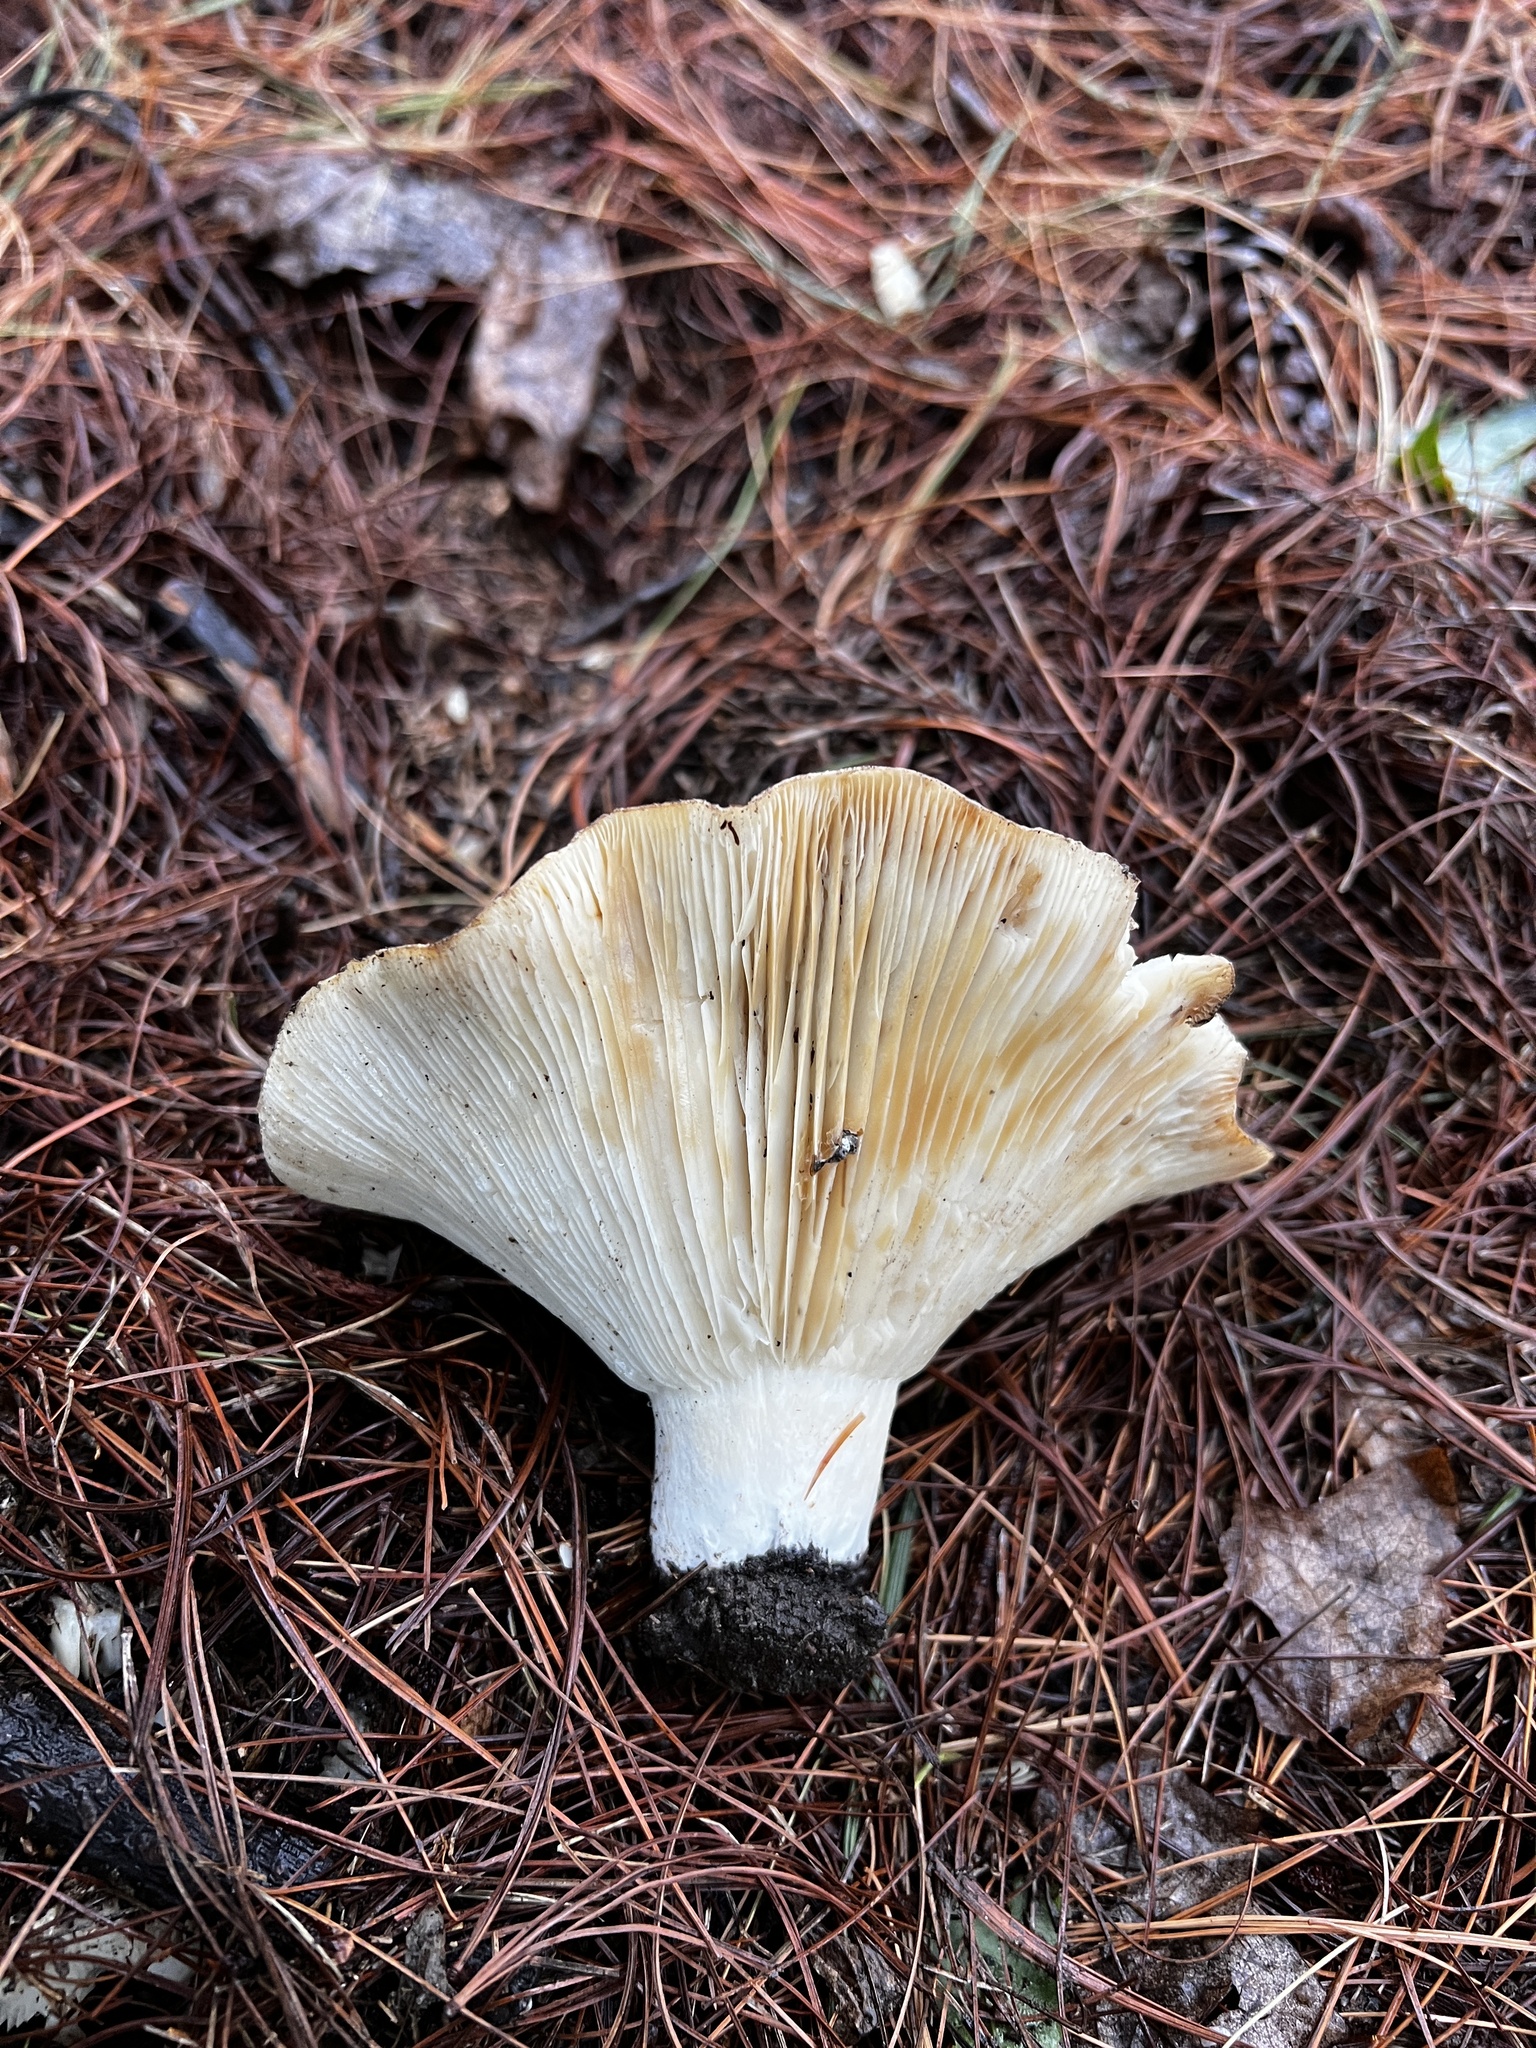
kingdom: Fungi
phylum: Basidiomycota
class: Agaricomycetes
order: Russulales
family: Russulaceae
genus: Russula
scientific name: Russula brevipes
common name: Short-stemmed russula
